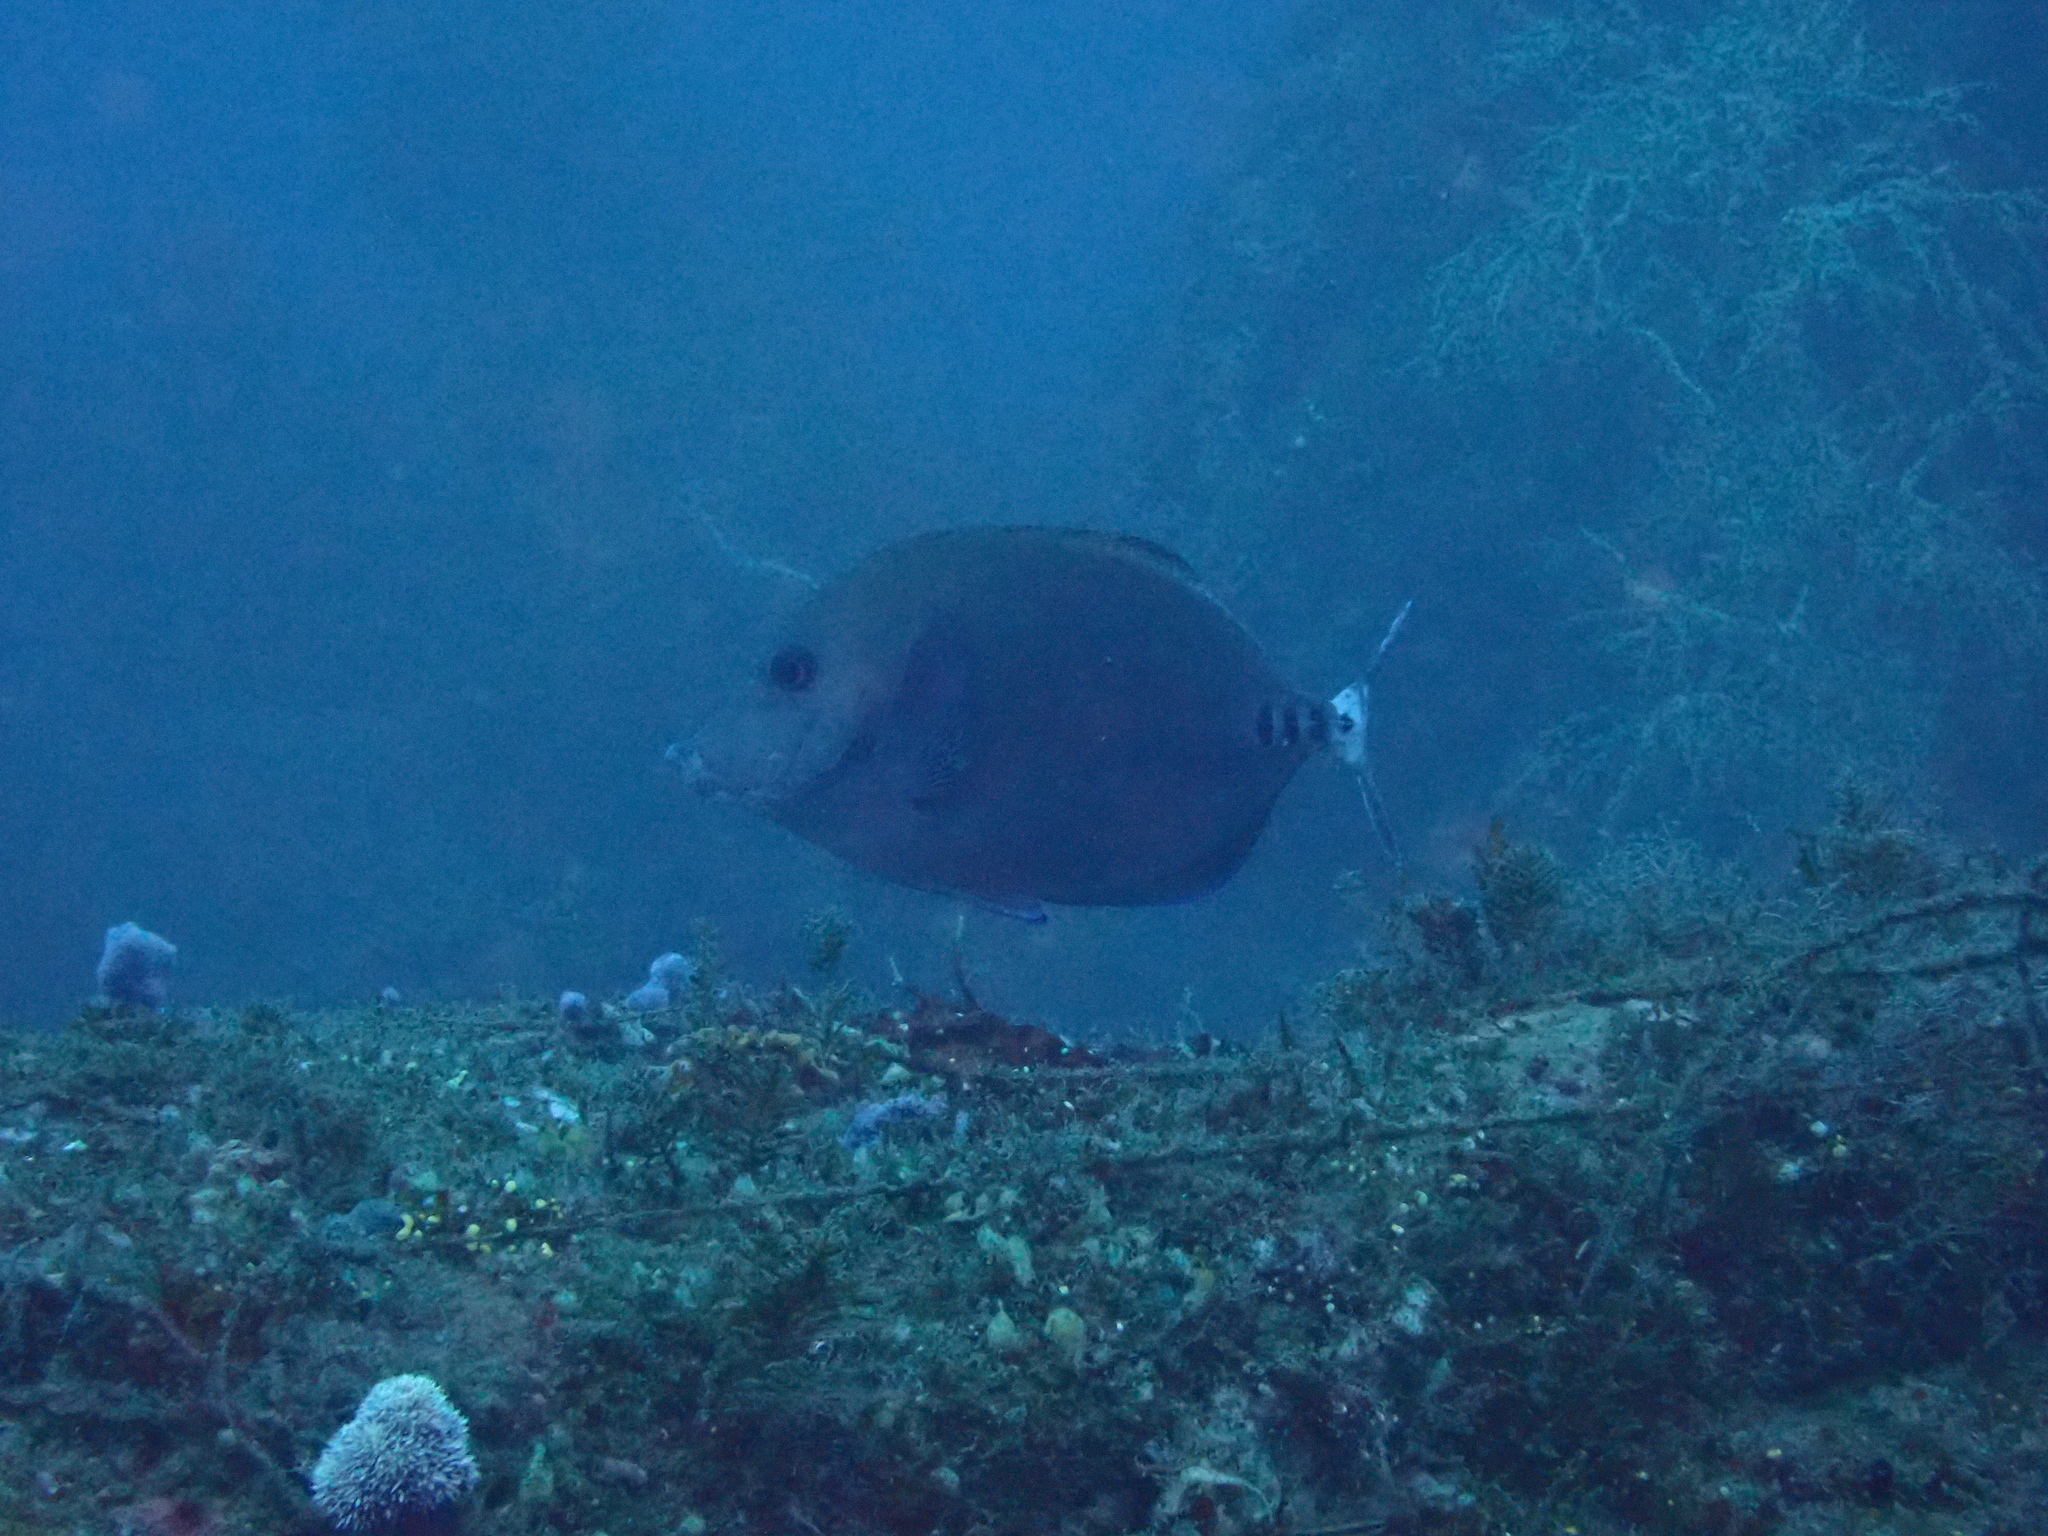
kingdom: Animalia
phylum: Chordata
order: Perciformes
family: Acanthuridae
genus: Prionurus
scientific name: Prionurus scalprum
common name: Japanese sawtail
